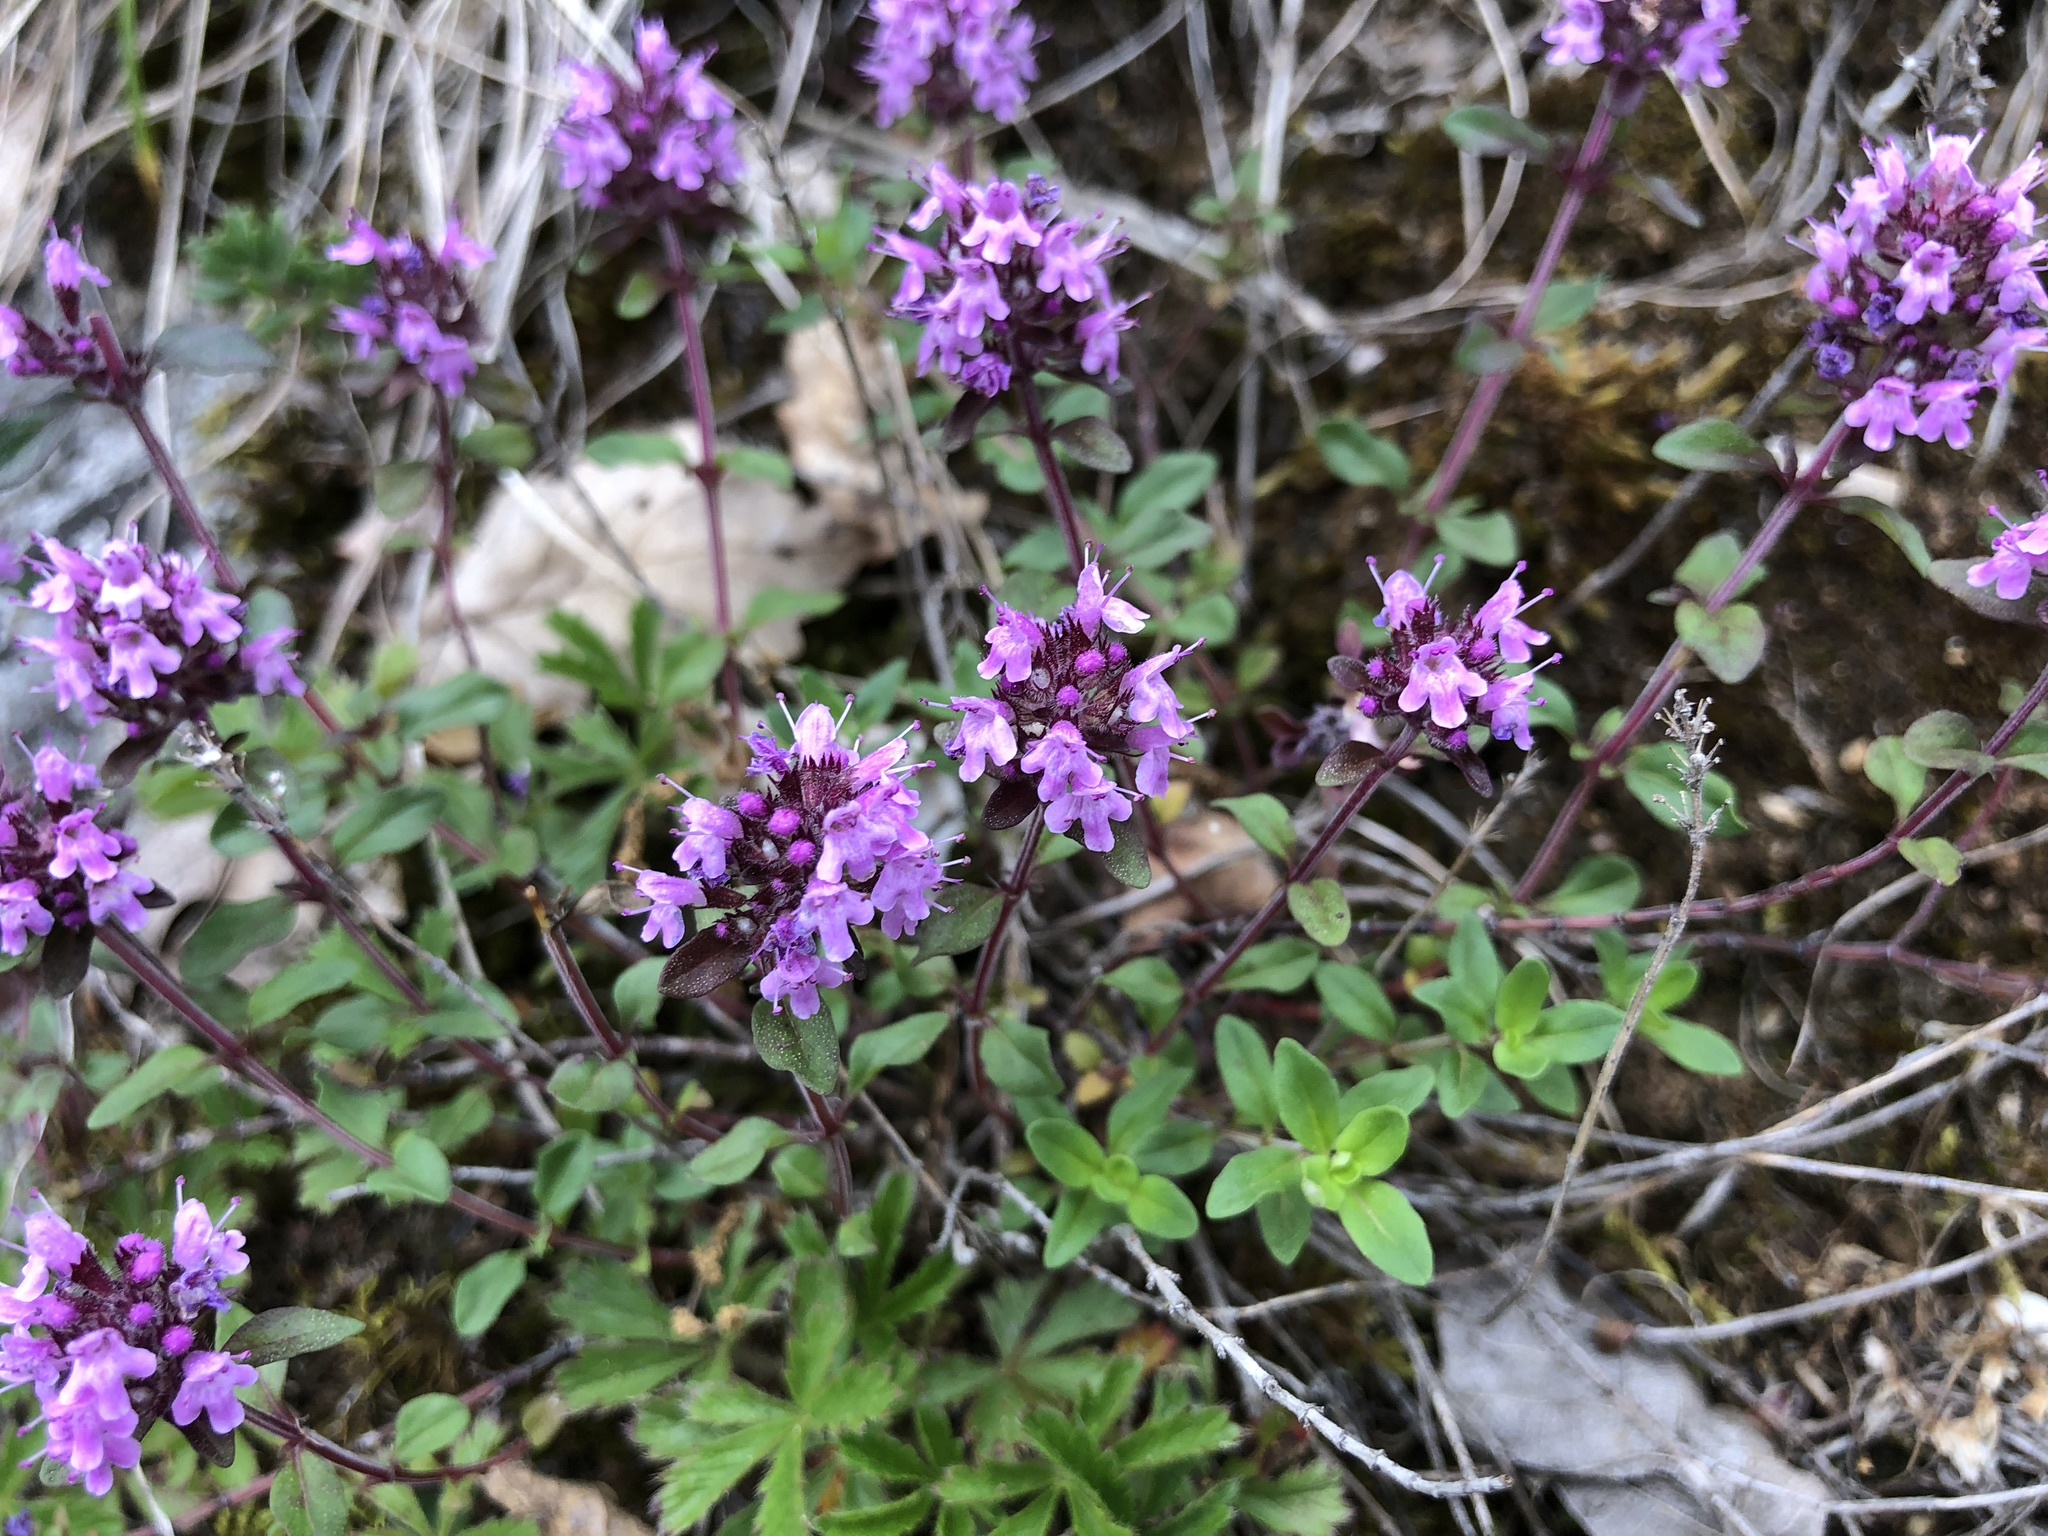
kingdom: Plantae
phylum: Tracheophyta
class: Magnoliopsida
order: Lamiales
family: Lamiaceae
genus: Thymus
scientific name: Thymus pulegioides
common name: Large thyme
